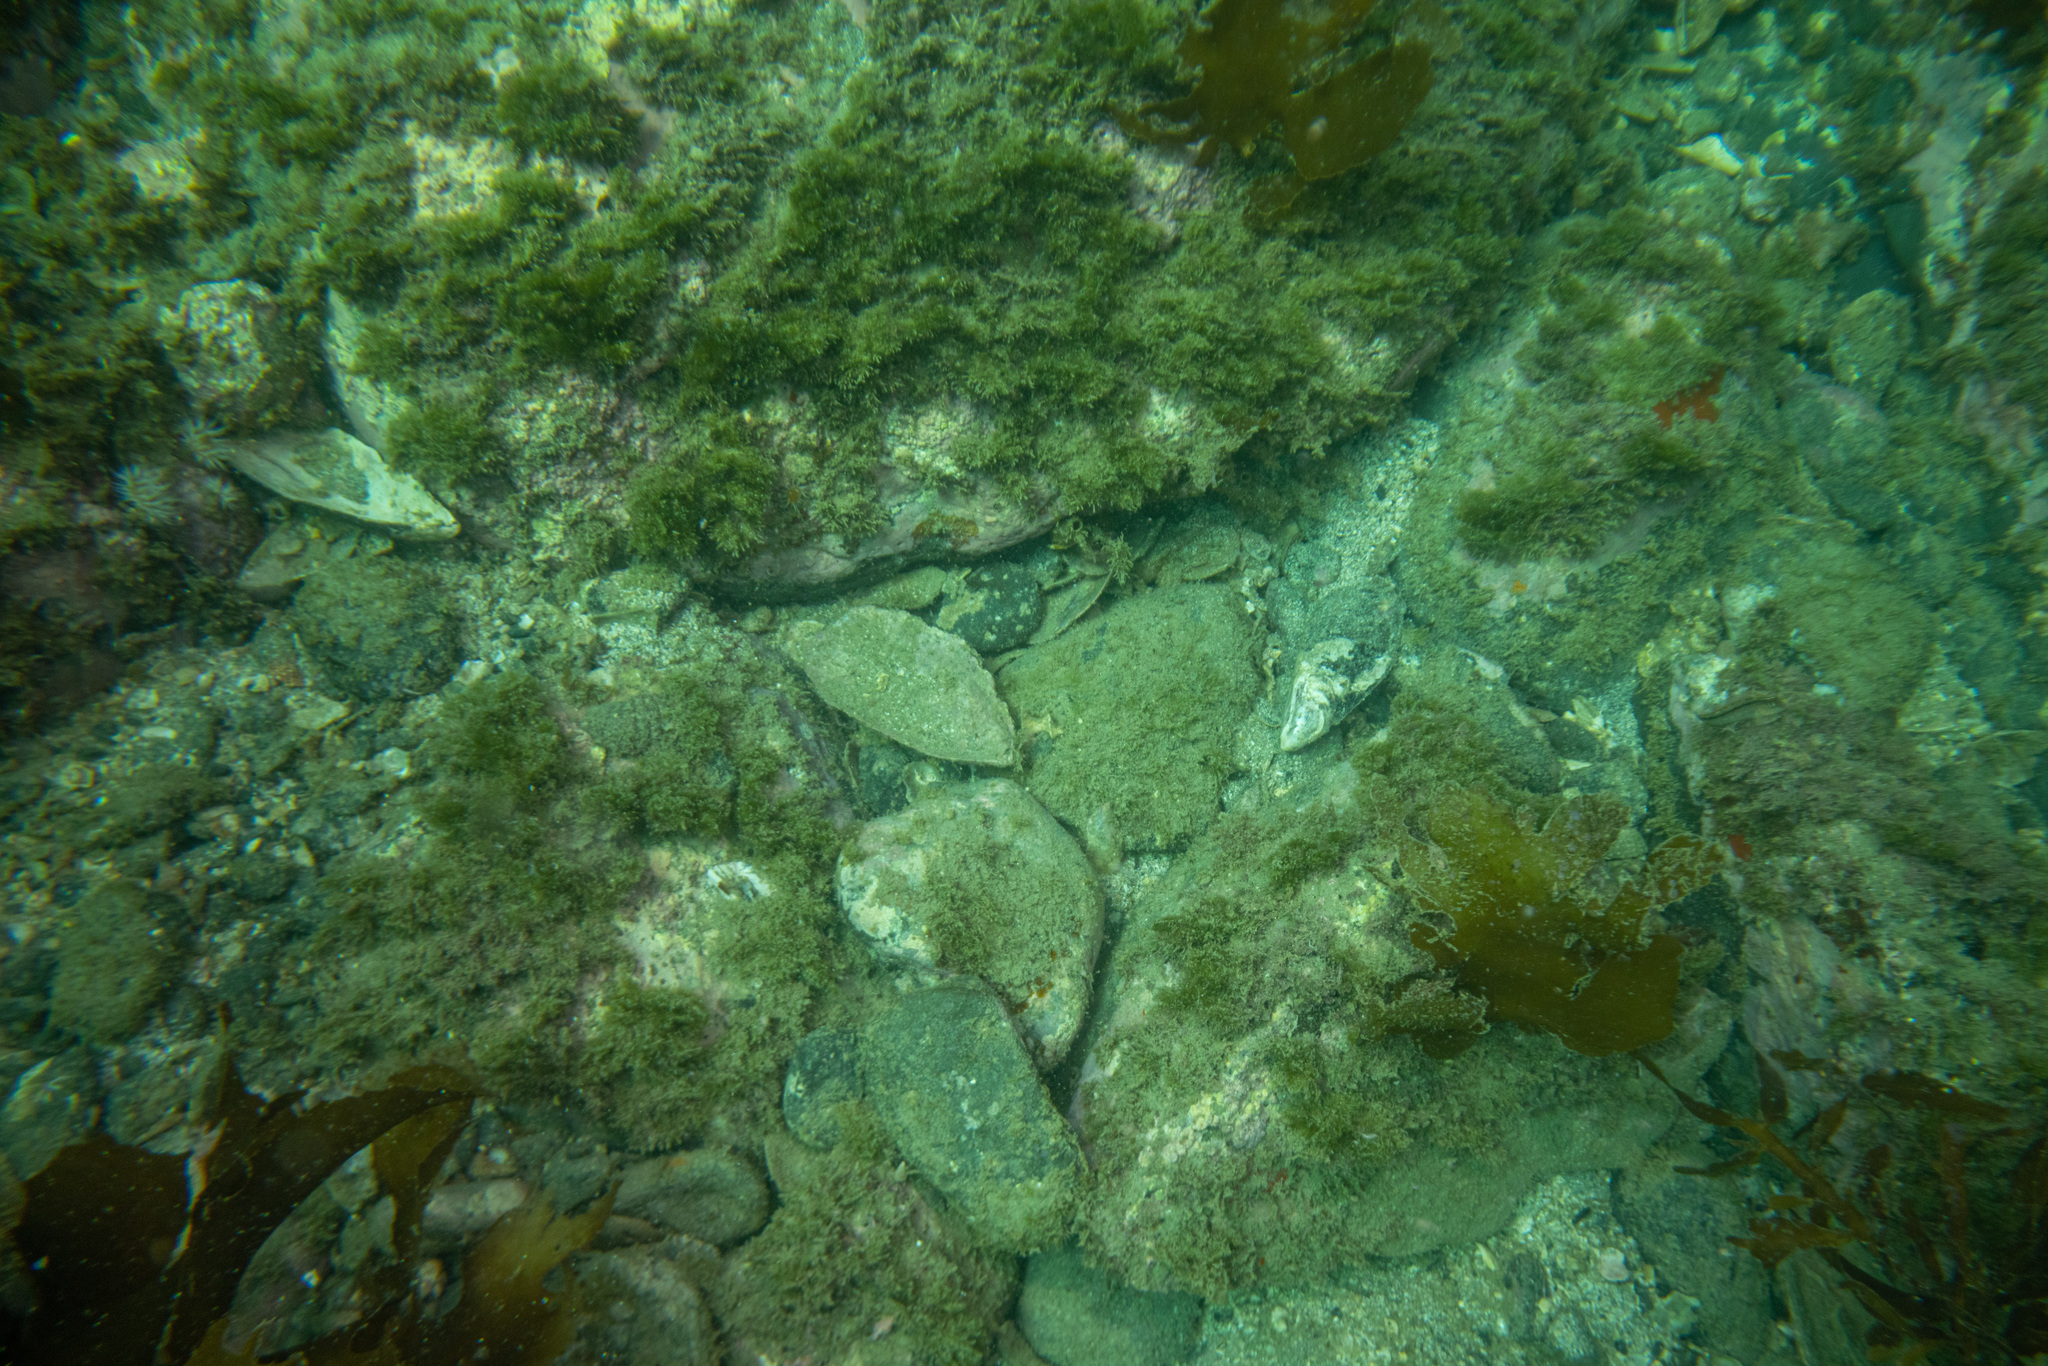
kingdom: Animalia
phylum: Mollusca
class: Bivalvia
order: Mytilida
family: Mytilidae
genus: Perna
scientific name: Perna canaliculus
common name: New zealand greenshelltm
